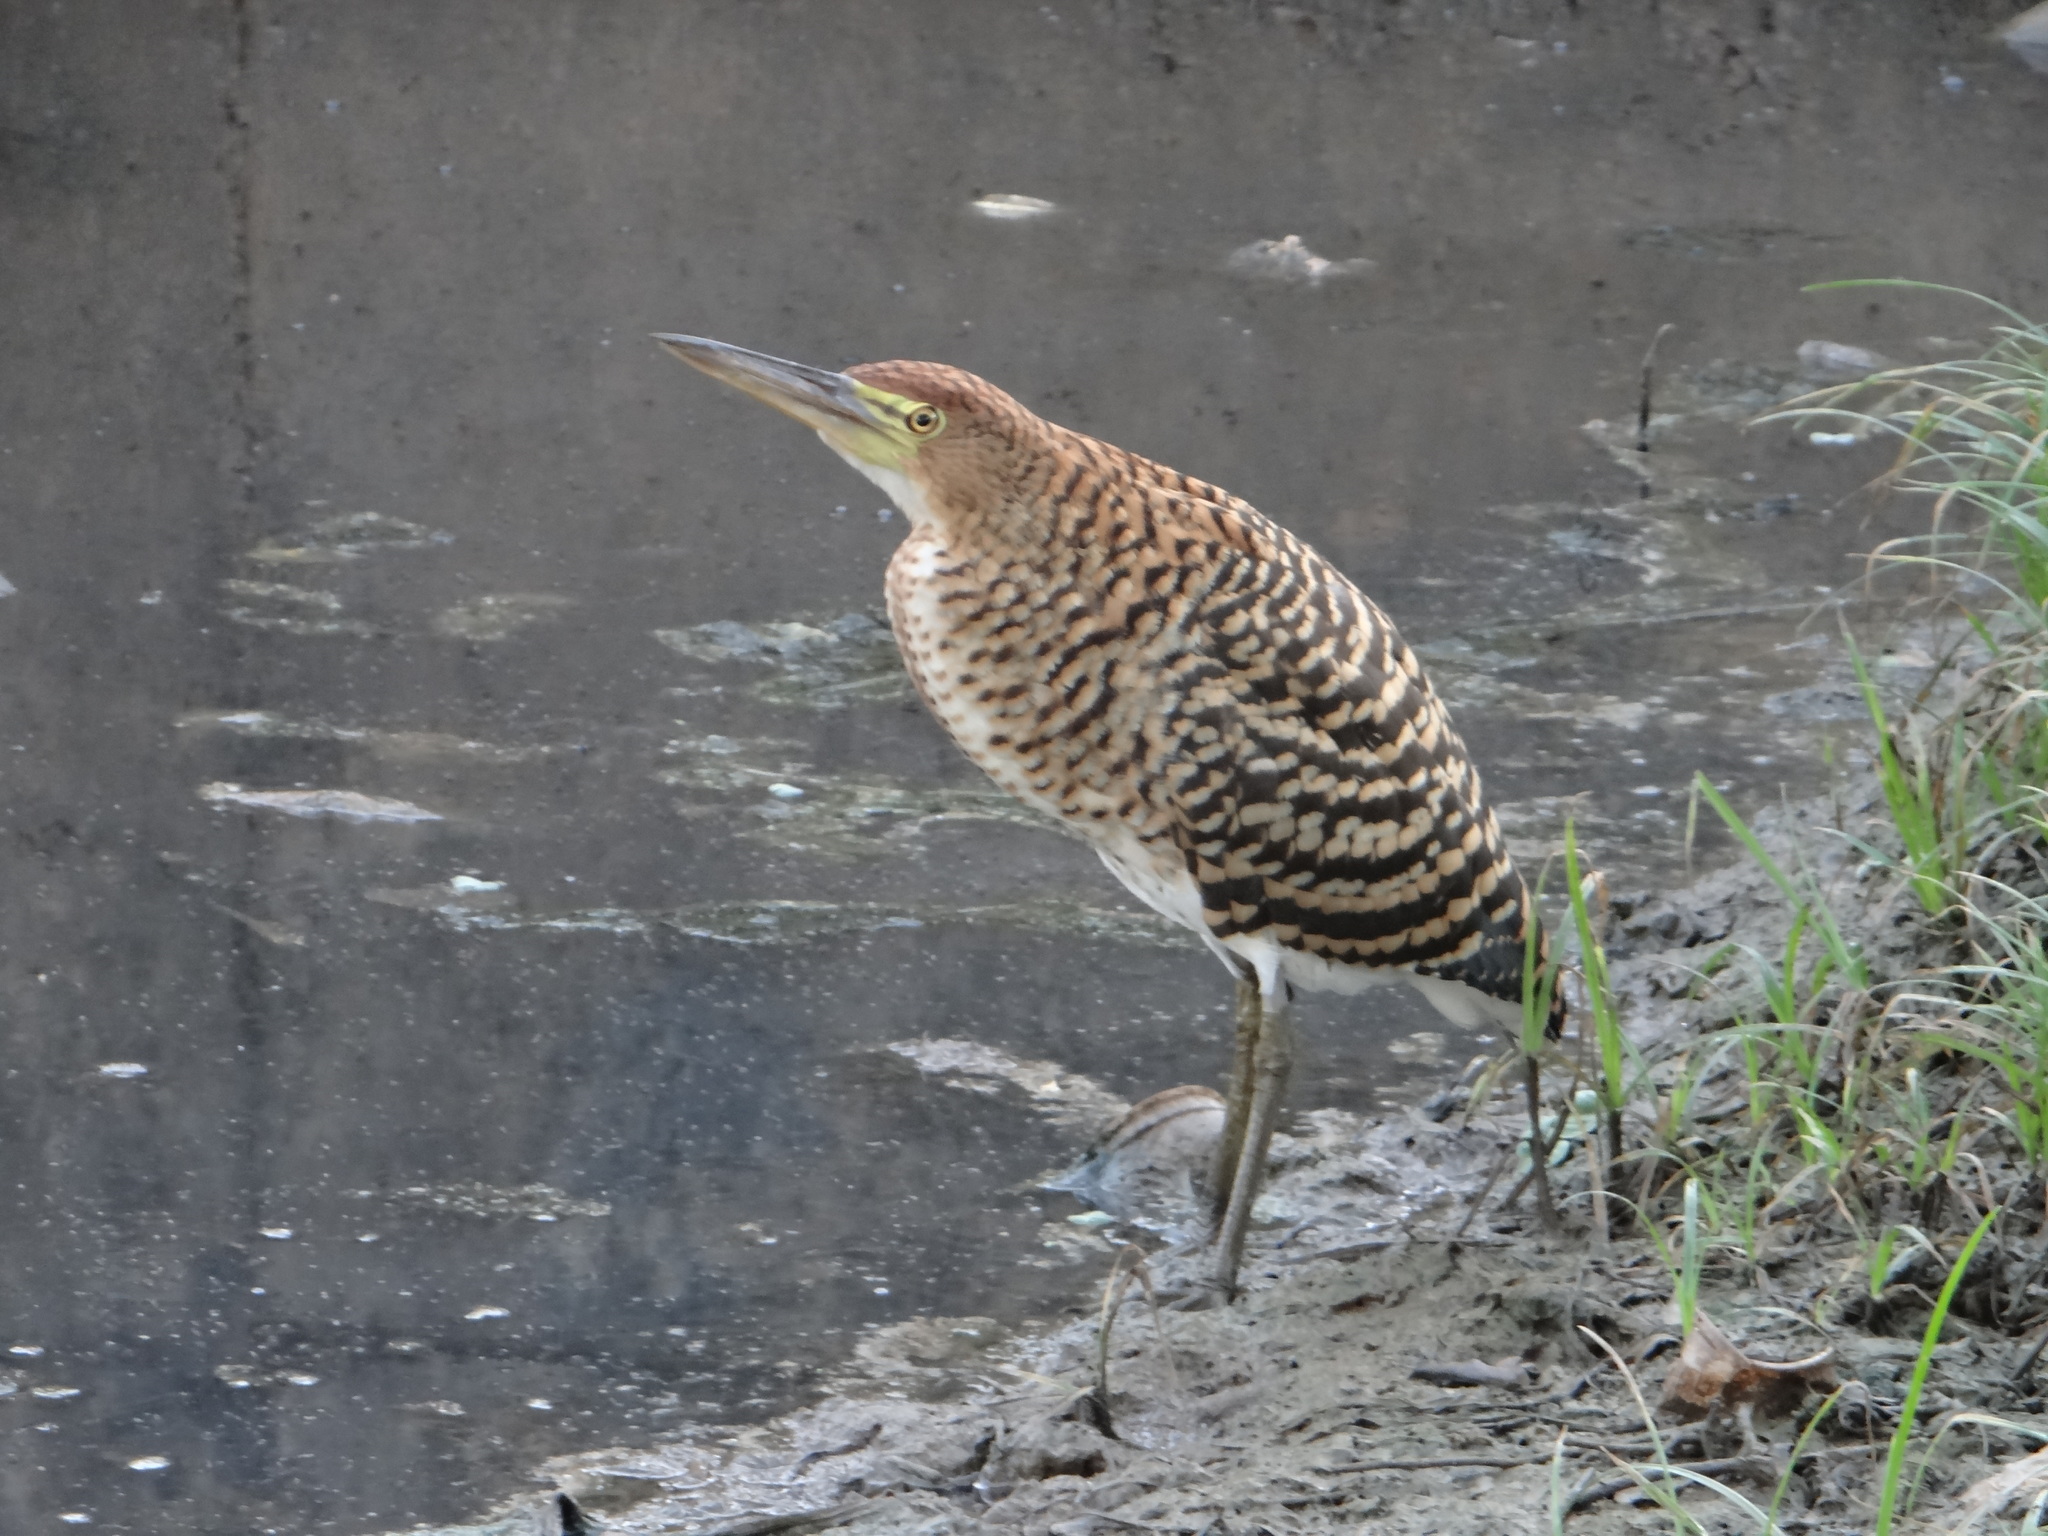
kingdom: Animalia
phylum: Chordata
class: Aves
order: Pelecaniformes
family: Ardeidae
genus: Tigrisoma
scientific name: Tigrisoma lineatum
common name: Rufescent tiger-heron
